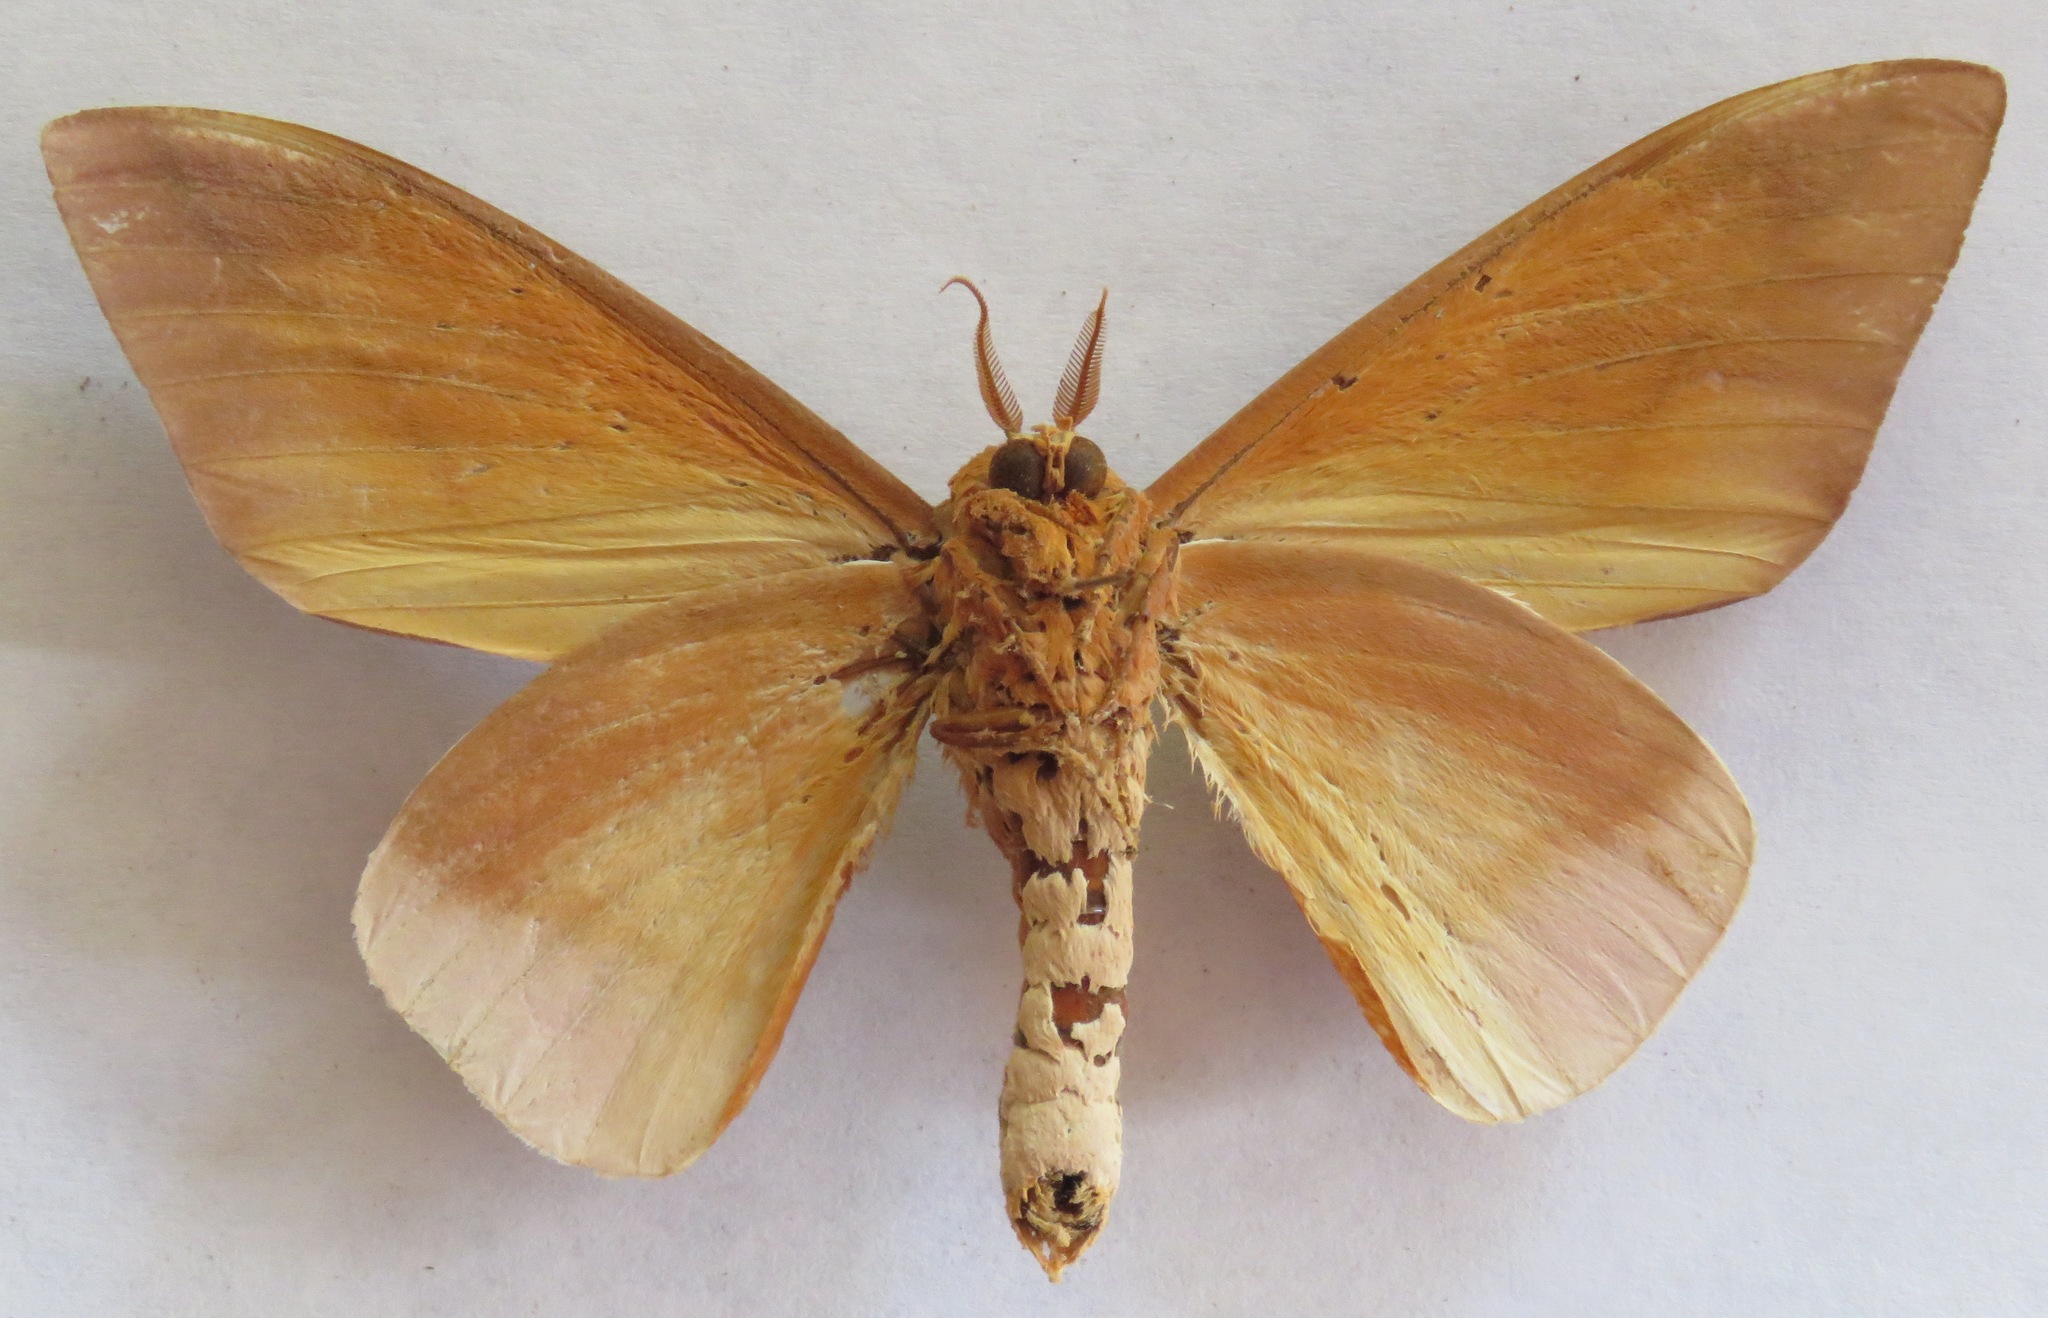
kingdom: Animalia
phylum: Arthropoda
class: Insecta
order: Lepidoptera
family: Saturniidae
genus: Schausiella
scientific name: Schausiella santarosensis
